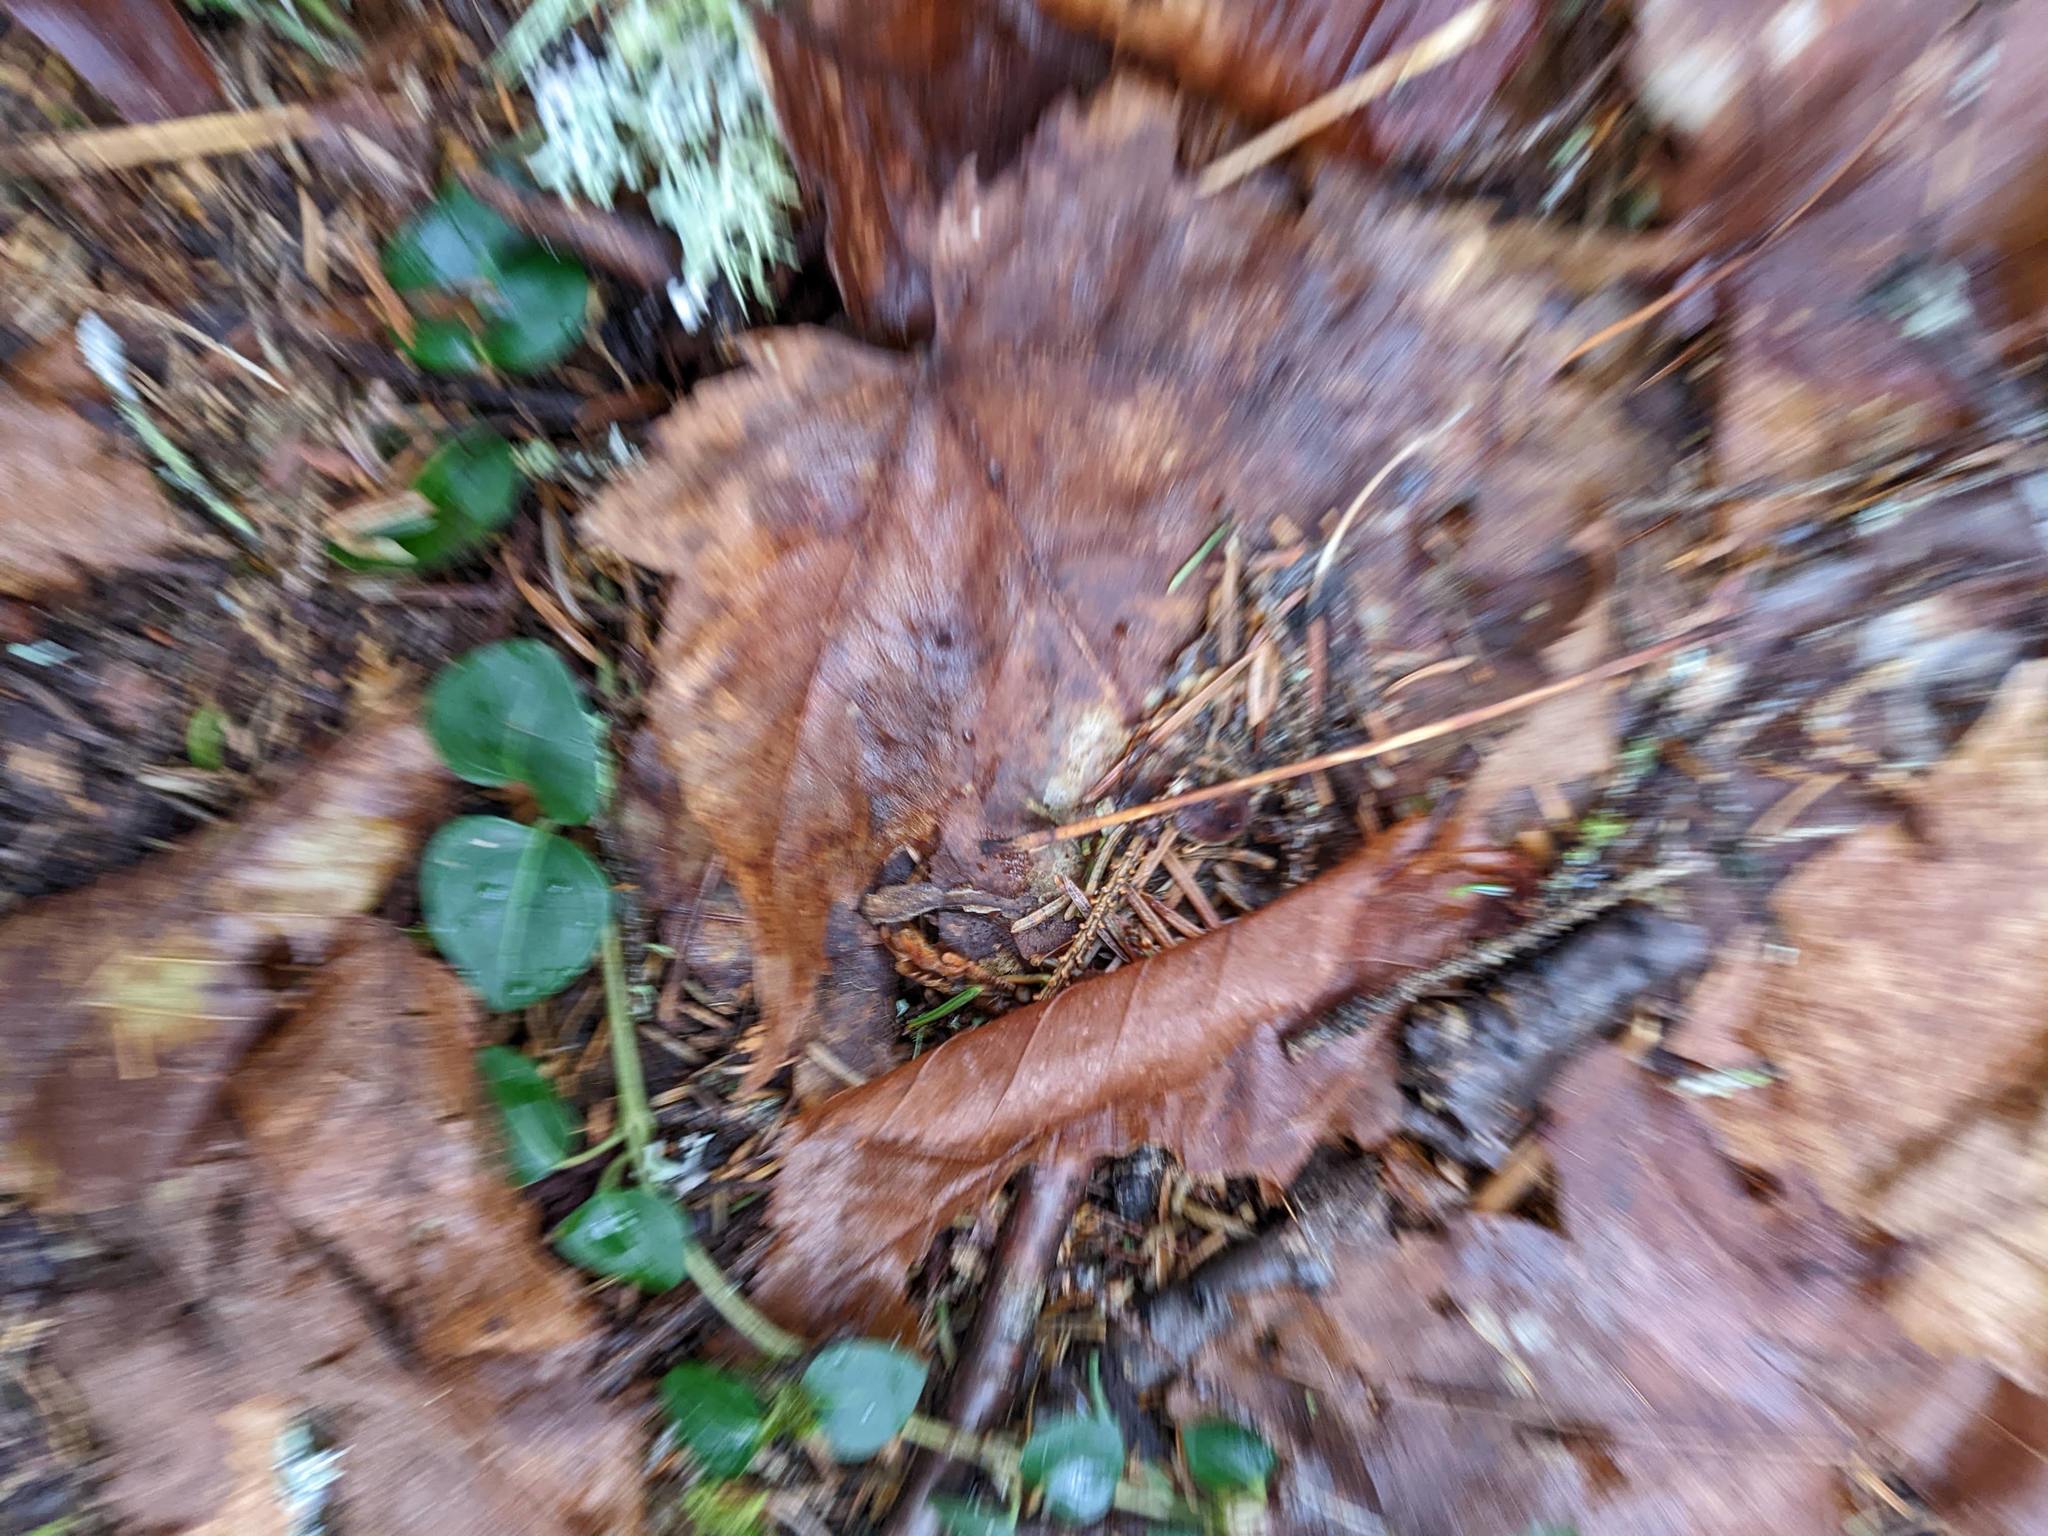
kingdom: Plantae
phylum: Tracheophyta
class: Magnoliopsida
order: Sapindales
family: Sapindaceae
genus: Acer
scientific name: Acer rubrum
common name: Red maple
